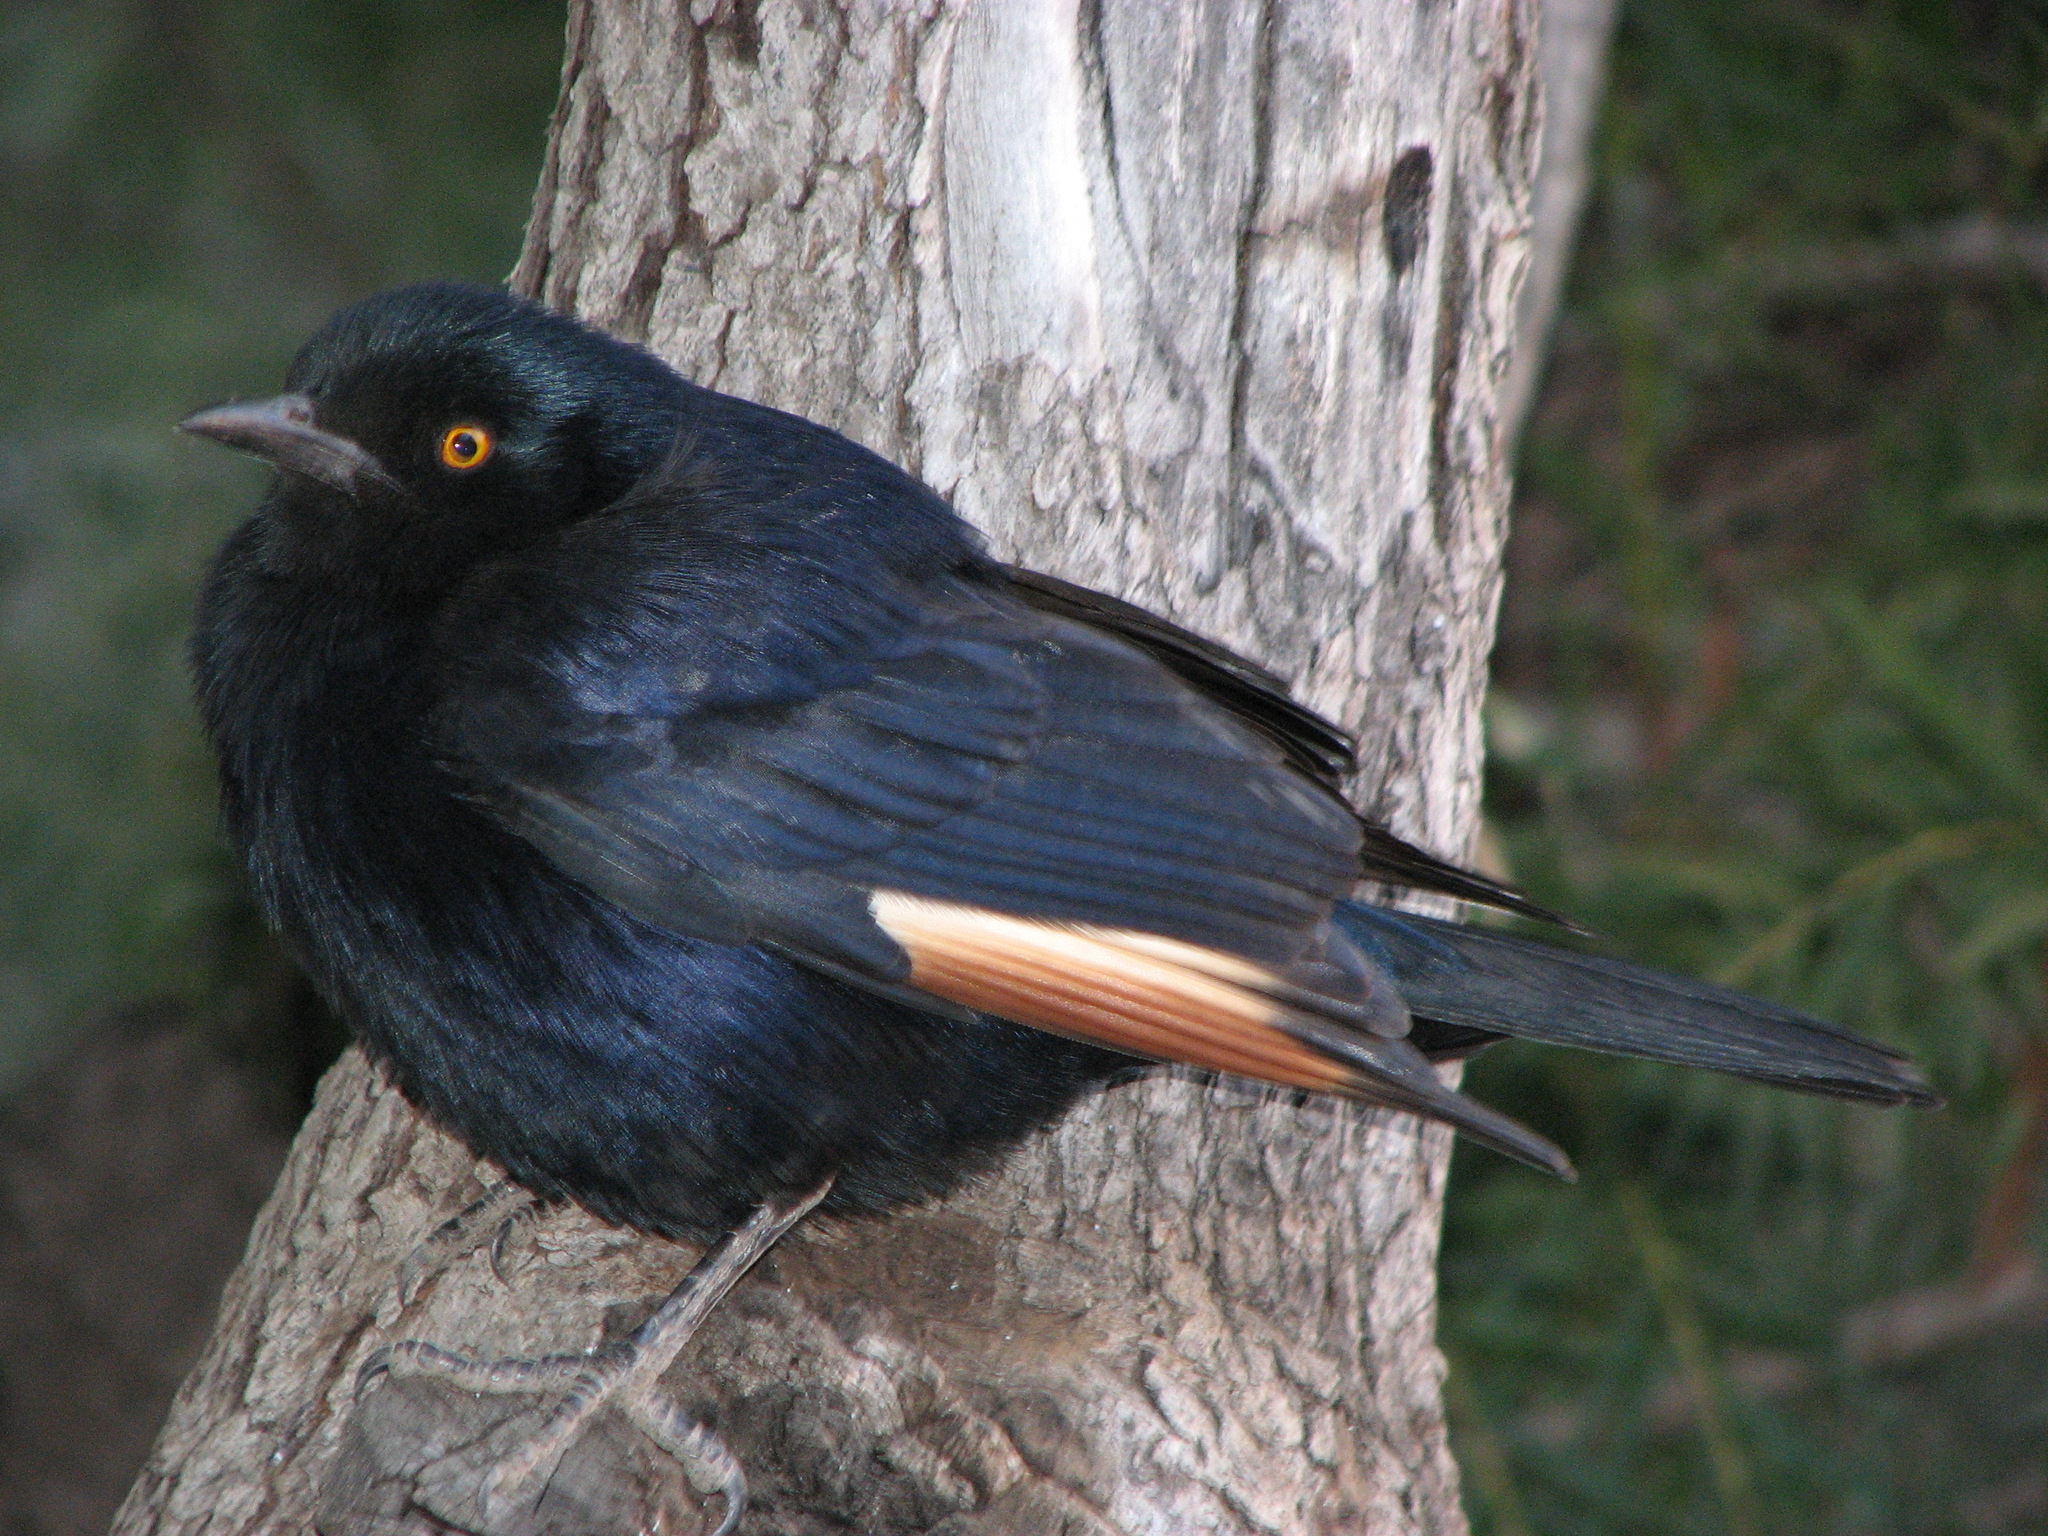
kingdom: Animalia
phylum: Chordata
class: Aves
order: Passeriformes
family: Sturnidae
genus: Onychognathus
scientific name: Onychognathus nabouroup
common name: Pale-winged starling
